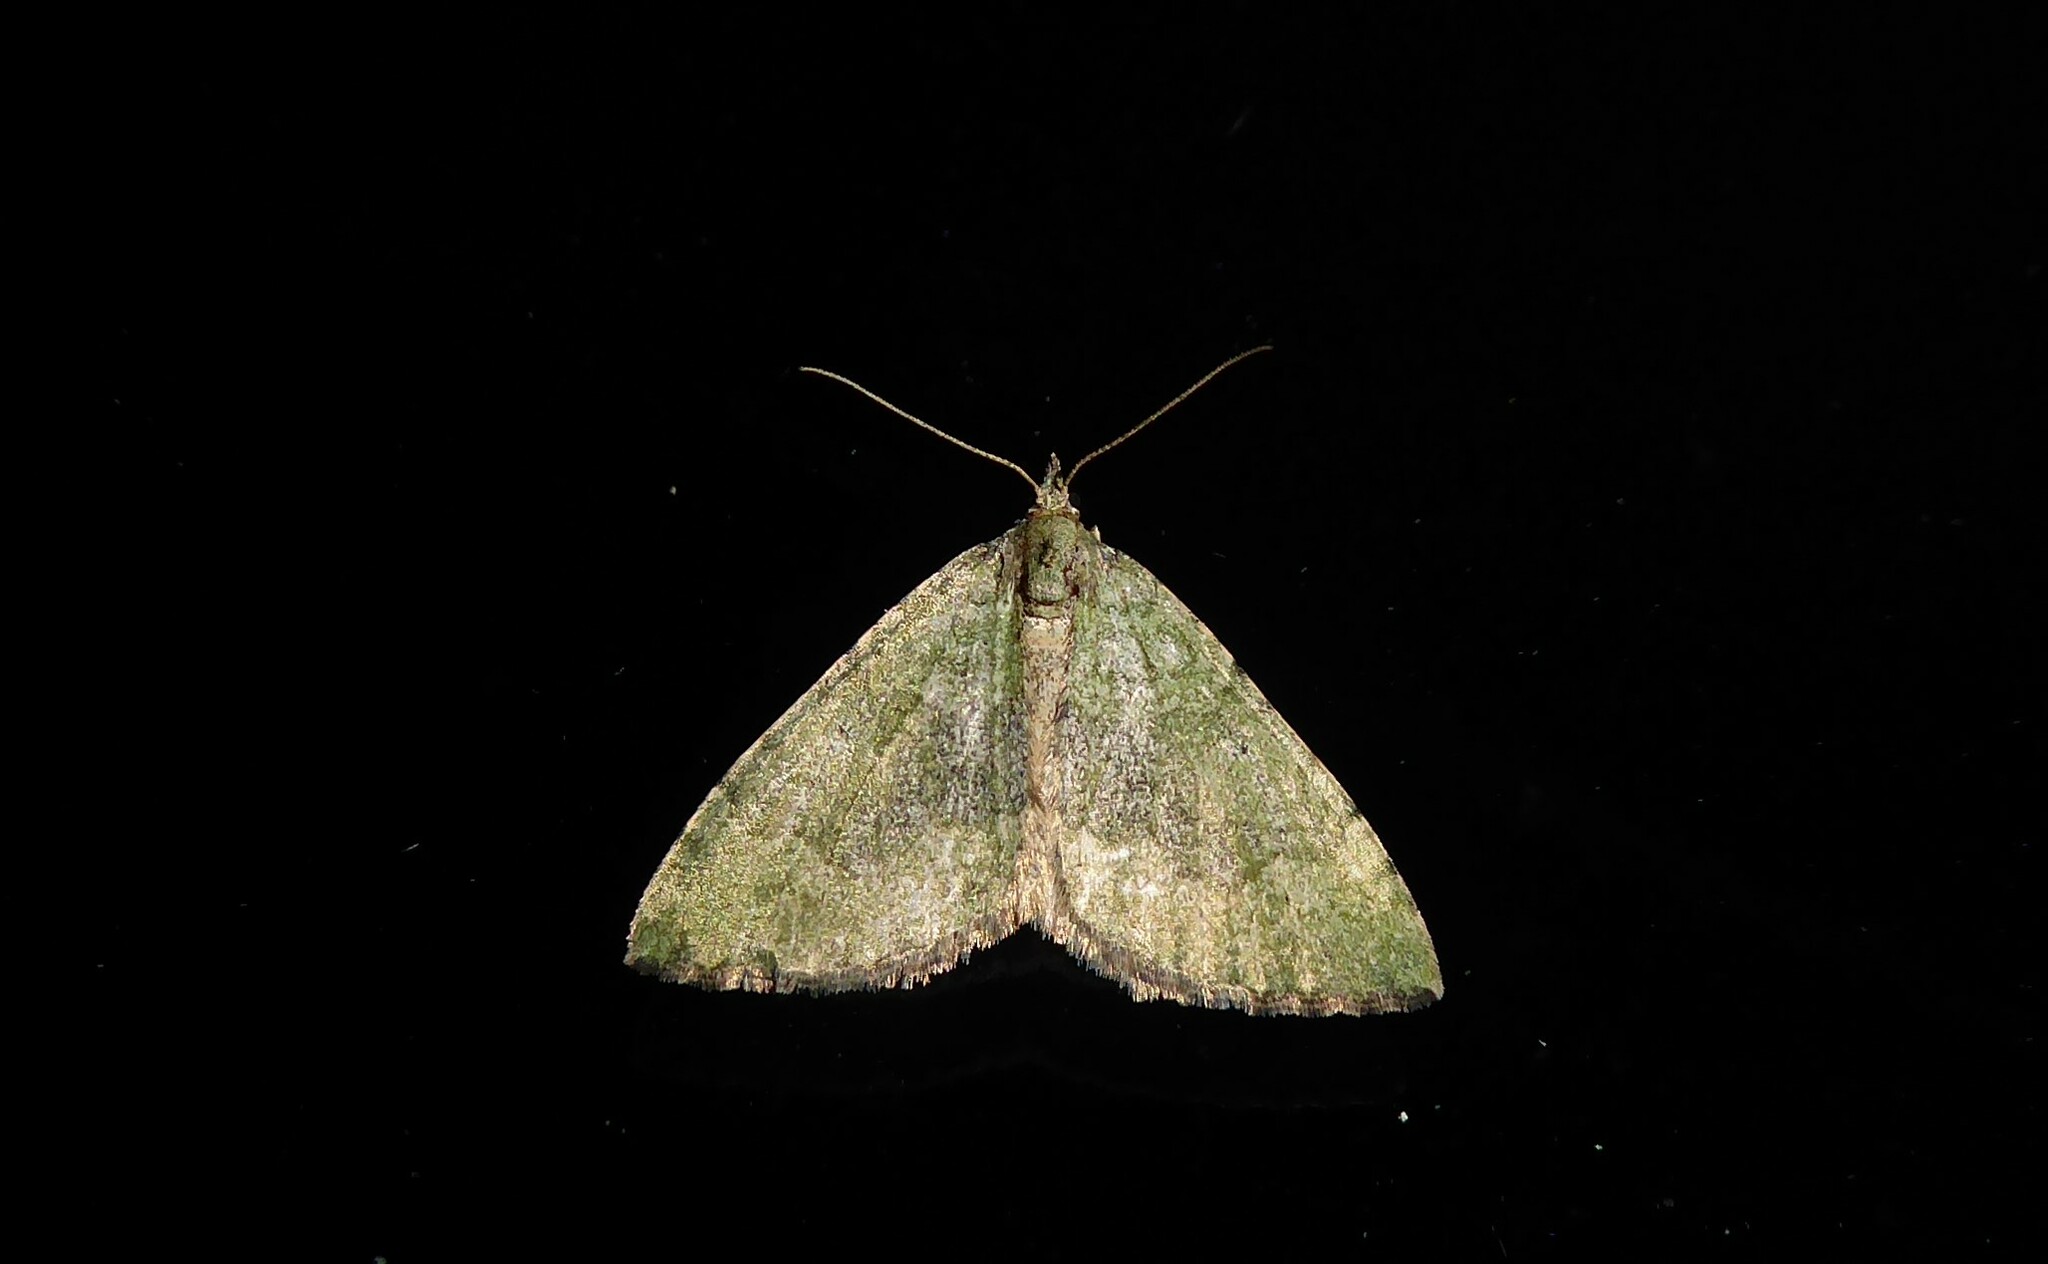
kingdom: Animalia
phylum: Arthropoda
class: Insecta
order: Lepidoptera
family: Geometridae
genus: Epyaxa
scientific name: Epyaxa rosearia
